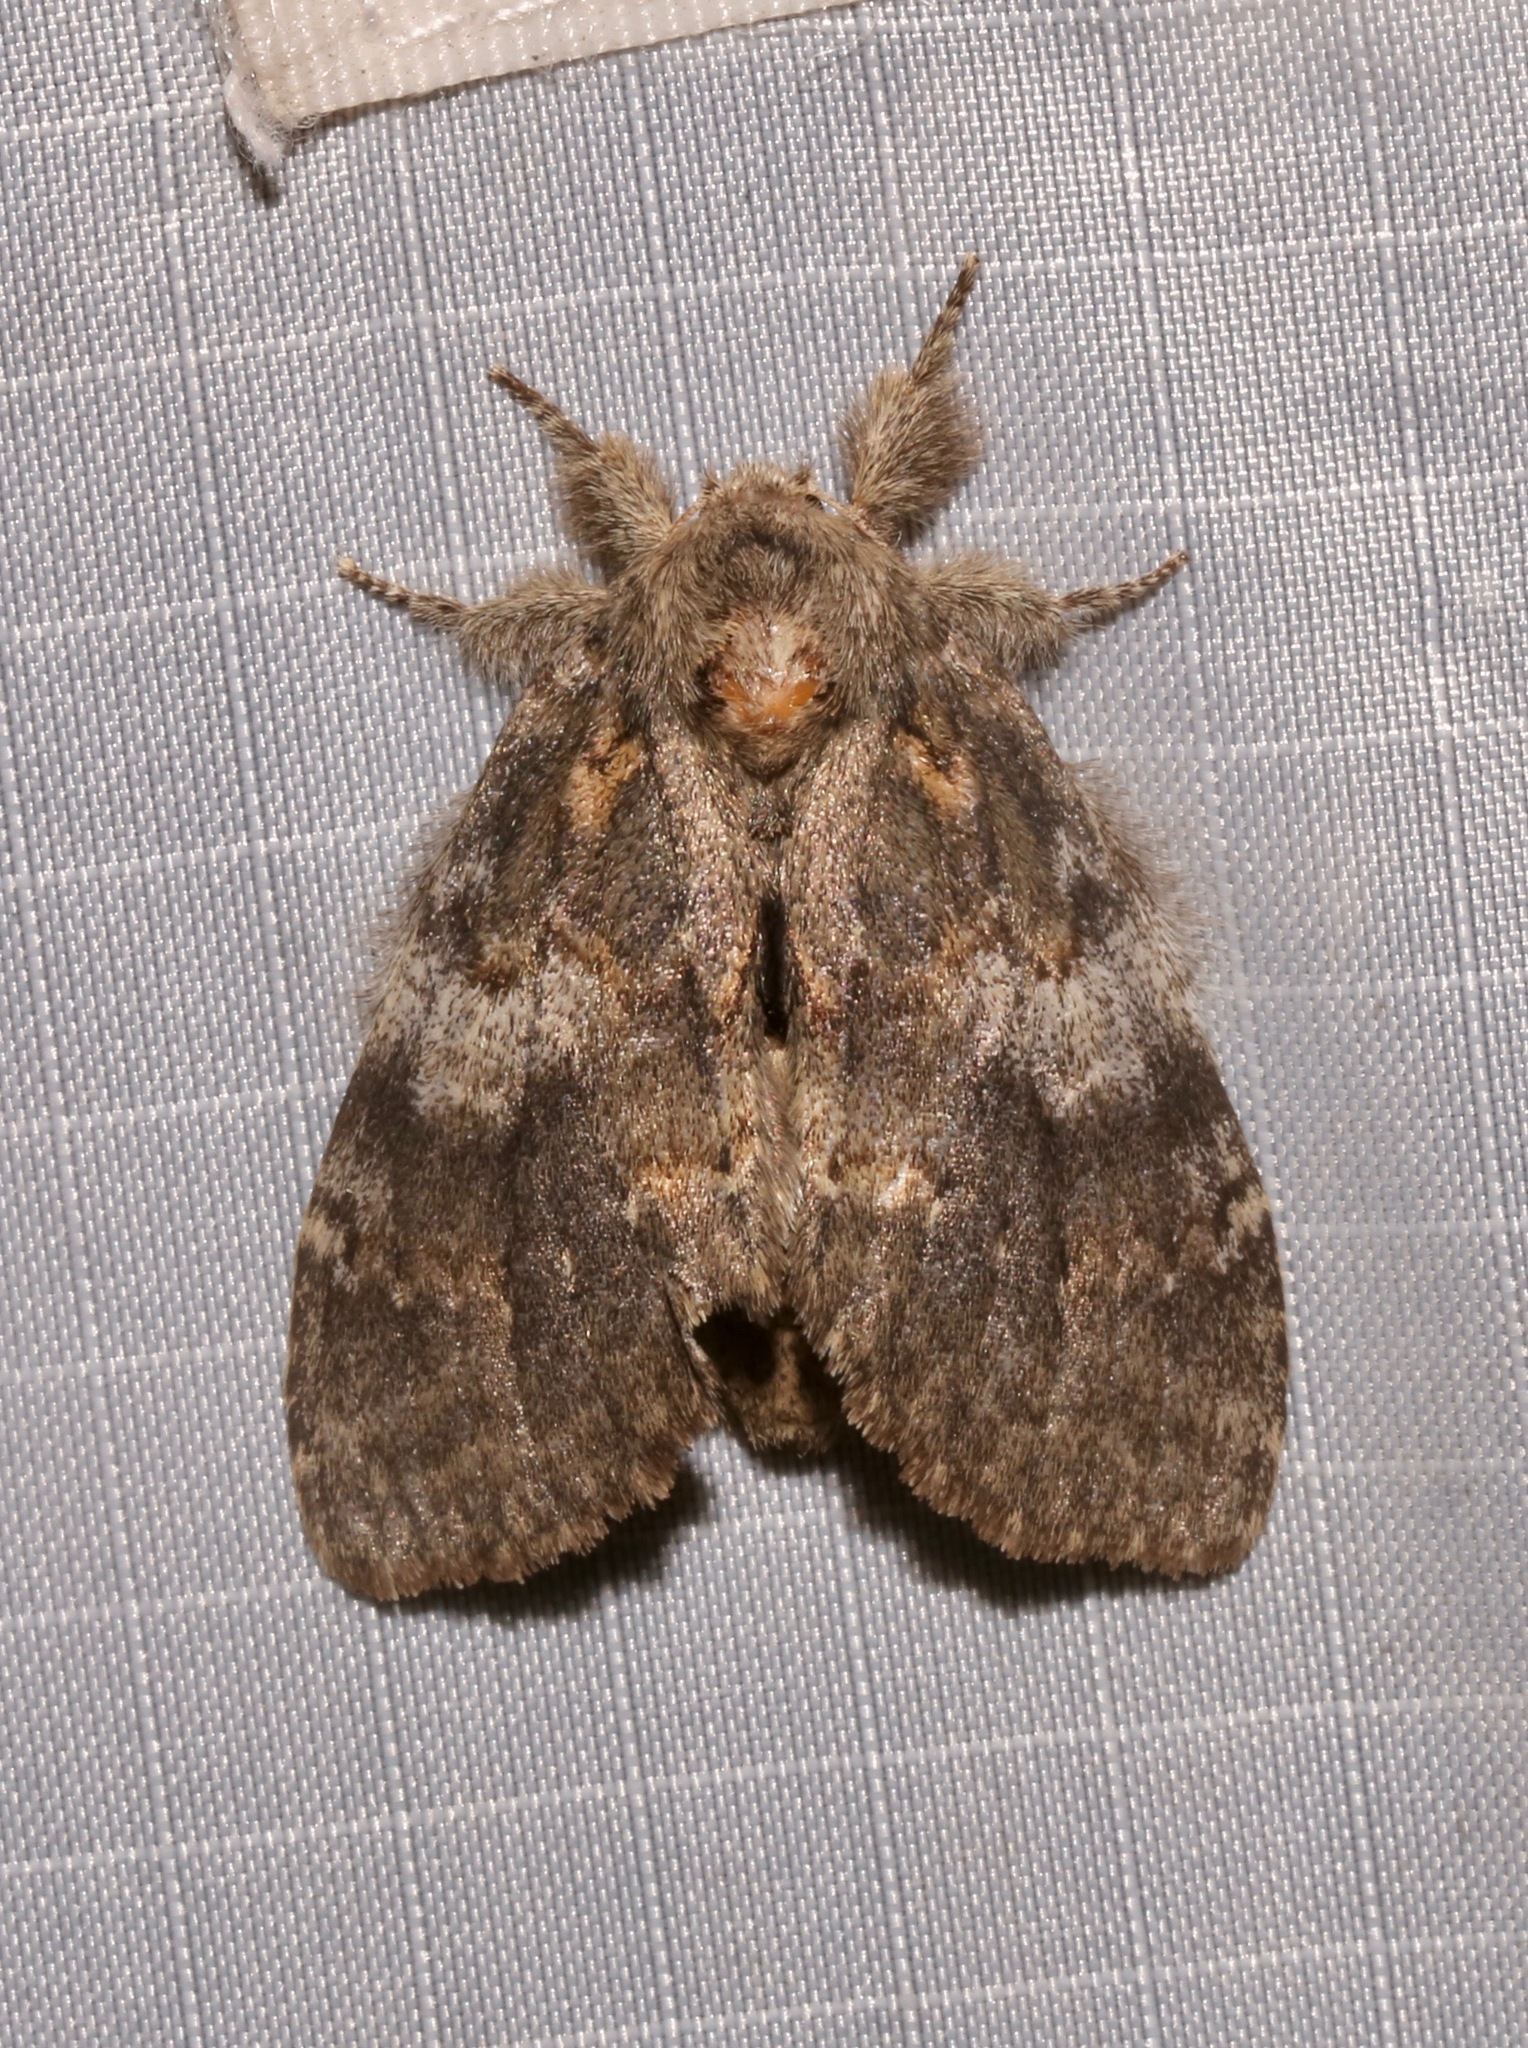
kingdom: Animalia
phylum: Arthropoda
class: Insecta
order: Lepidoptera
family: Notodontidae
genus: Peridea
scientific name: Peridea angulosa
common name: Angulose prominent
